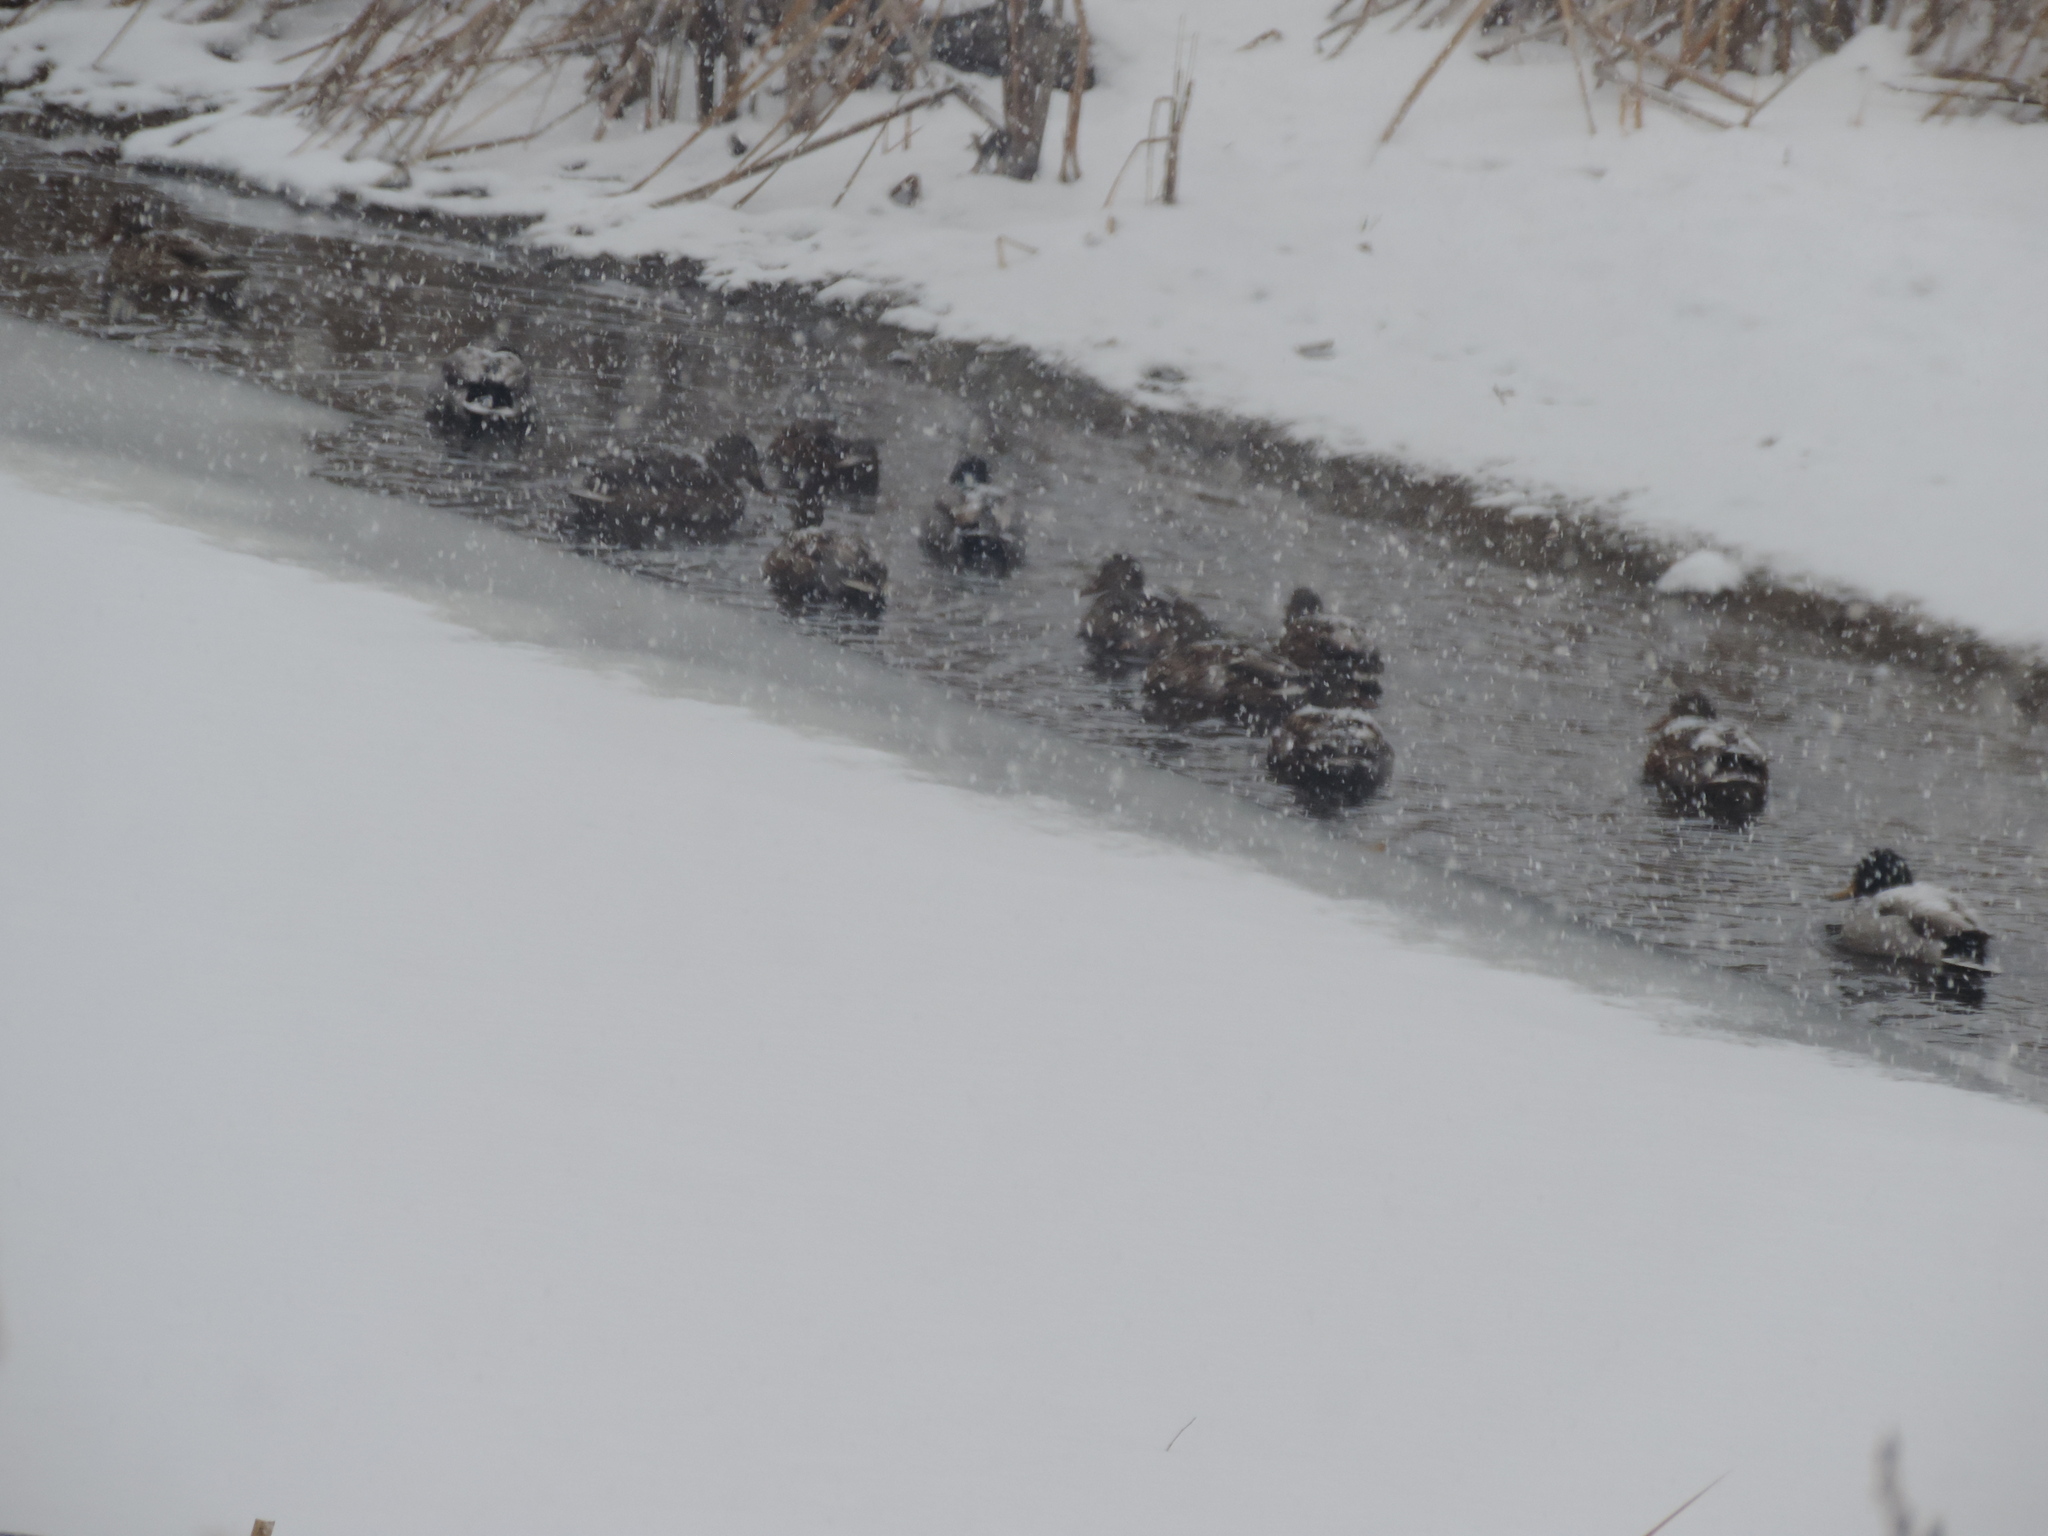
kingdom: Animalia
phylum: Chordata
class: Aves
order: Anseriformes
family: Anatidae
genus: Anas
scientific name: Anas platyrhynchos
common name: Mallard
